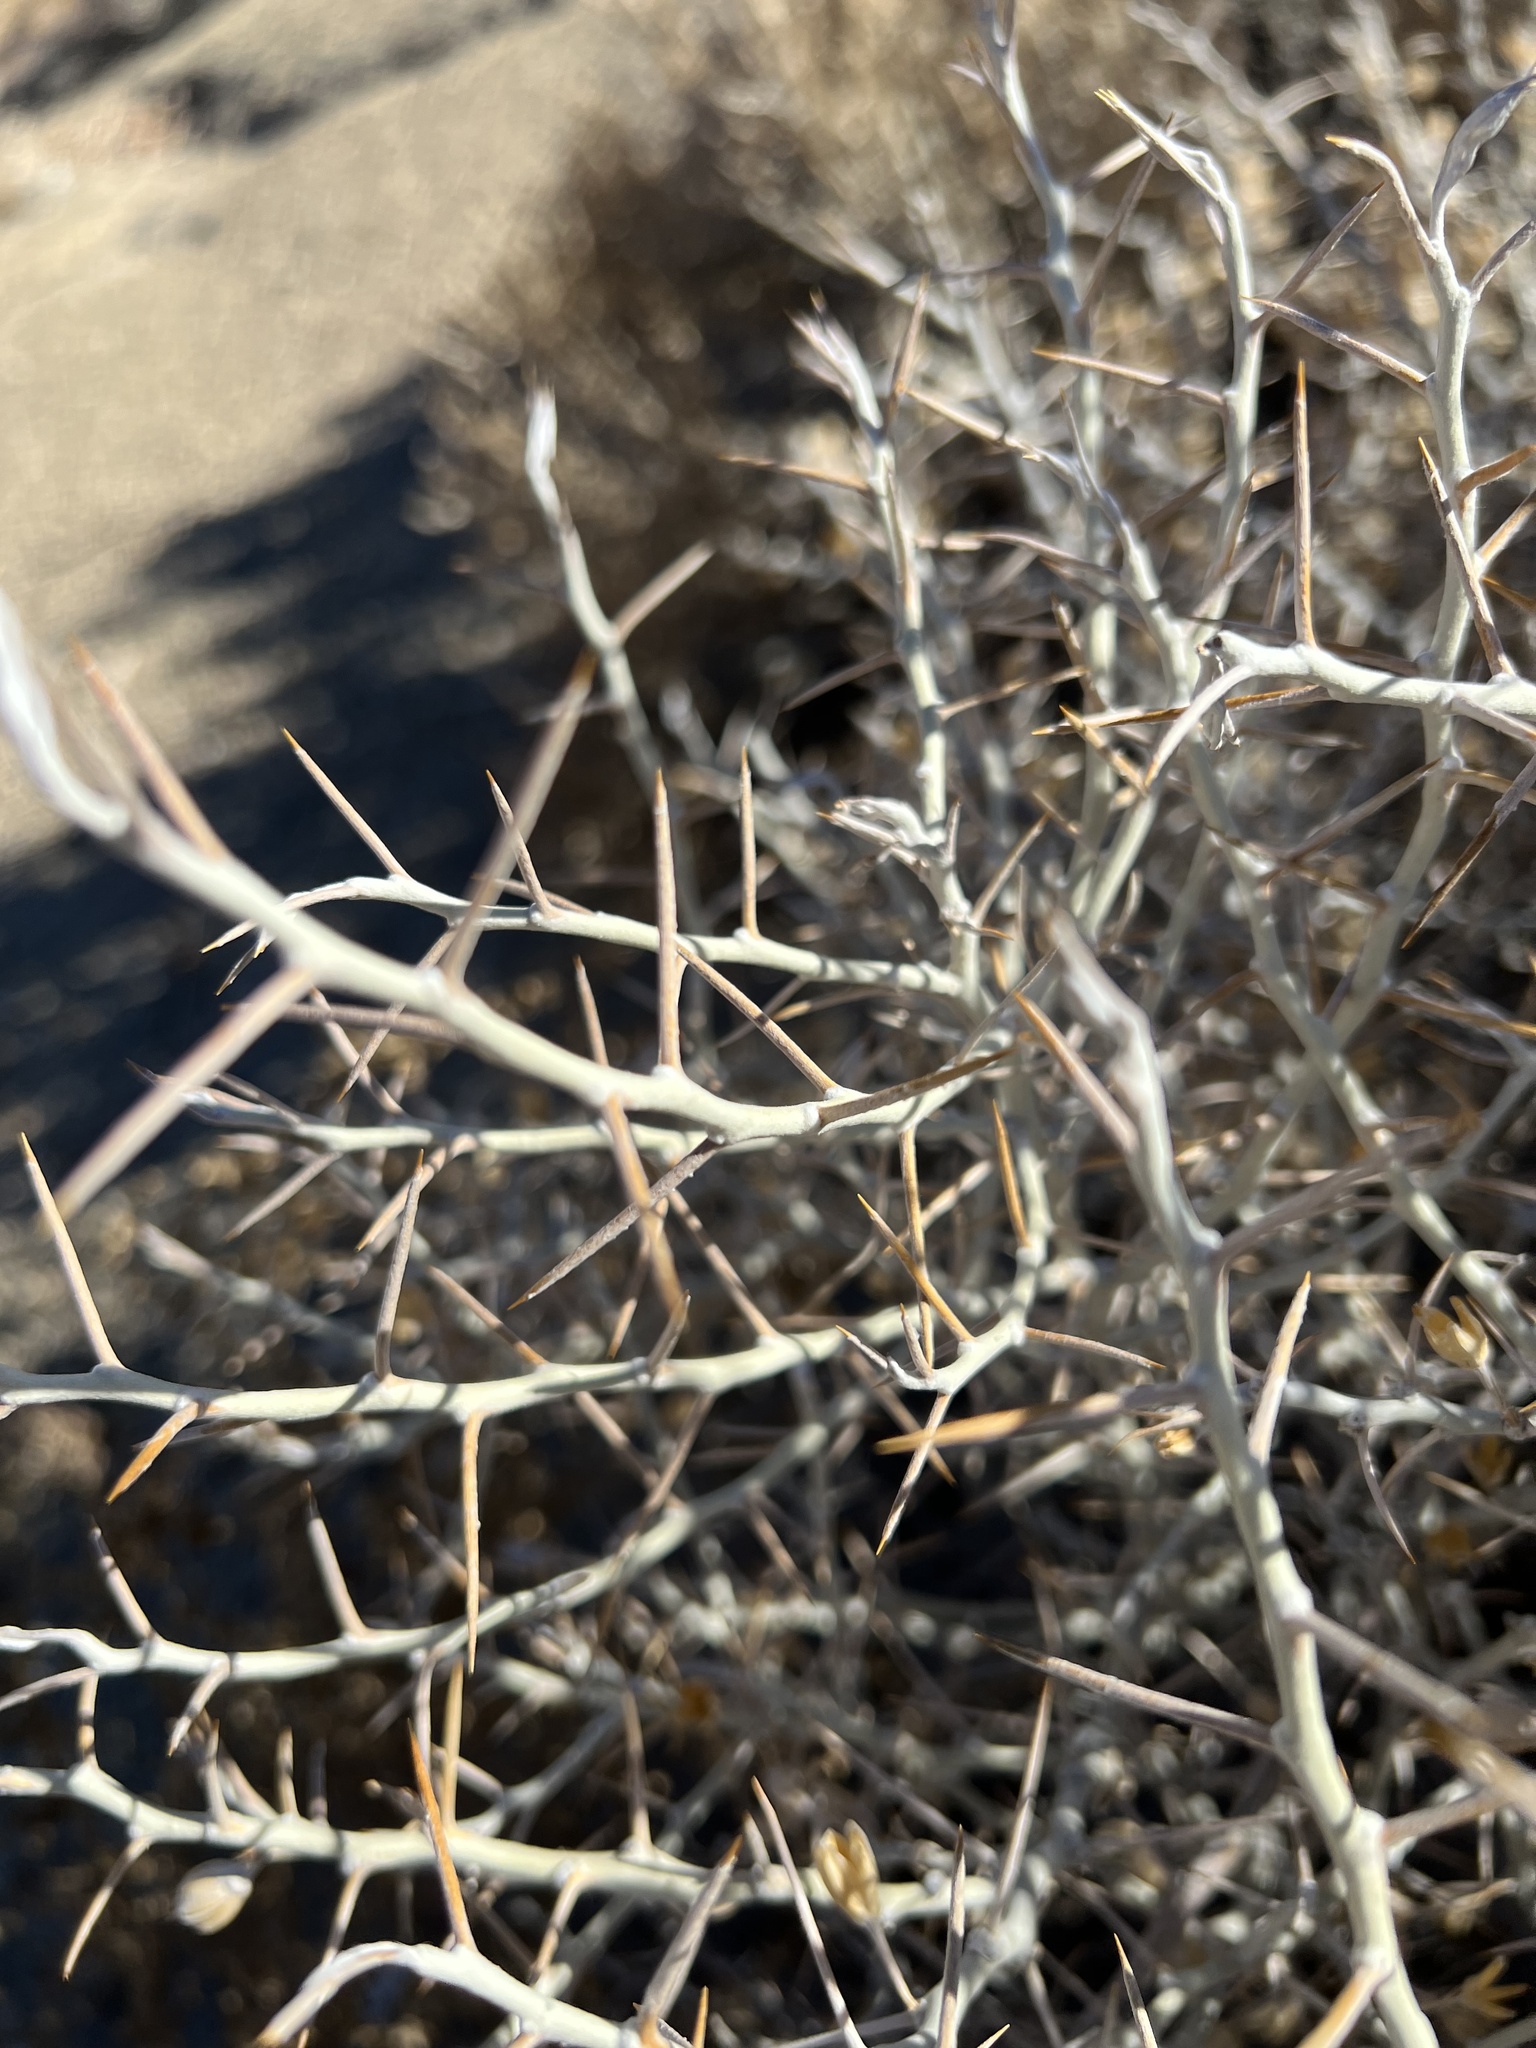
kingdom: Plantae
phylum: Tracheophyta
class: Magnoliopsida
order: Asterales
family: Asteraceae
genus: Tetradymia
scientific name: Tetradymia axillaris
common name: Long-spine horsebrush
